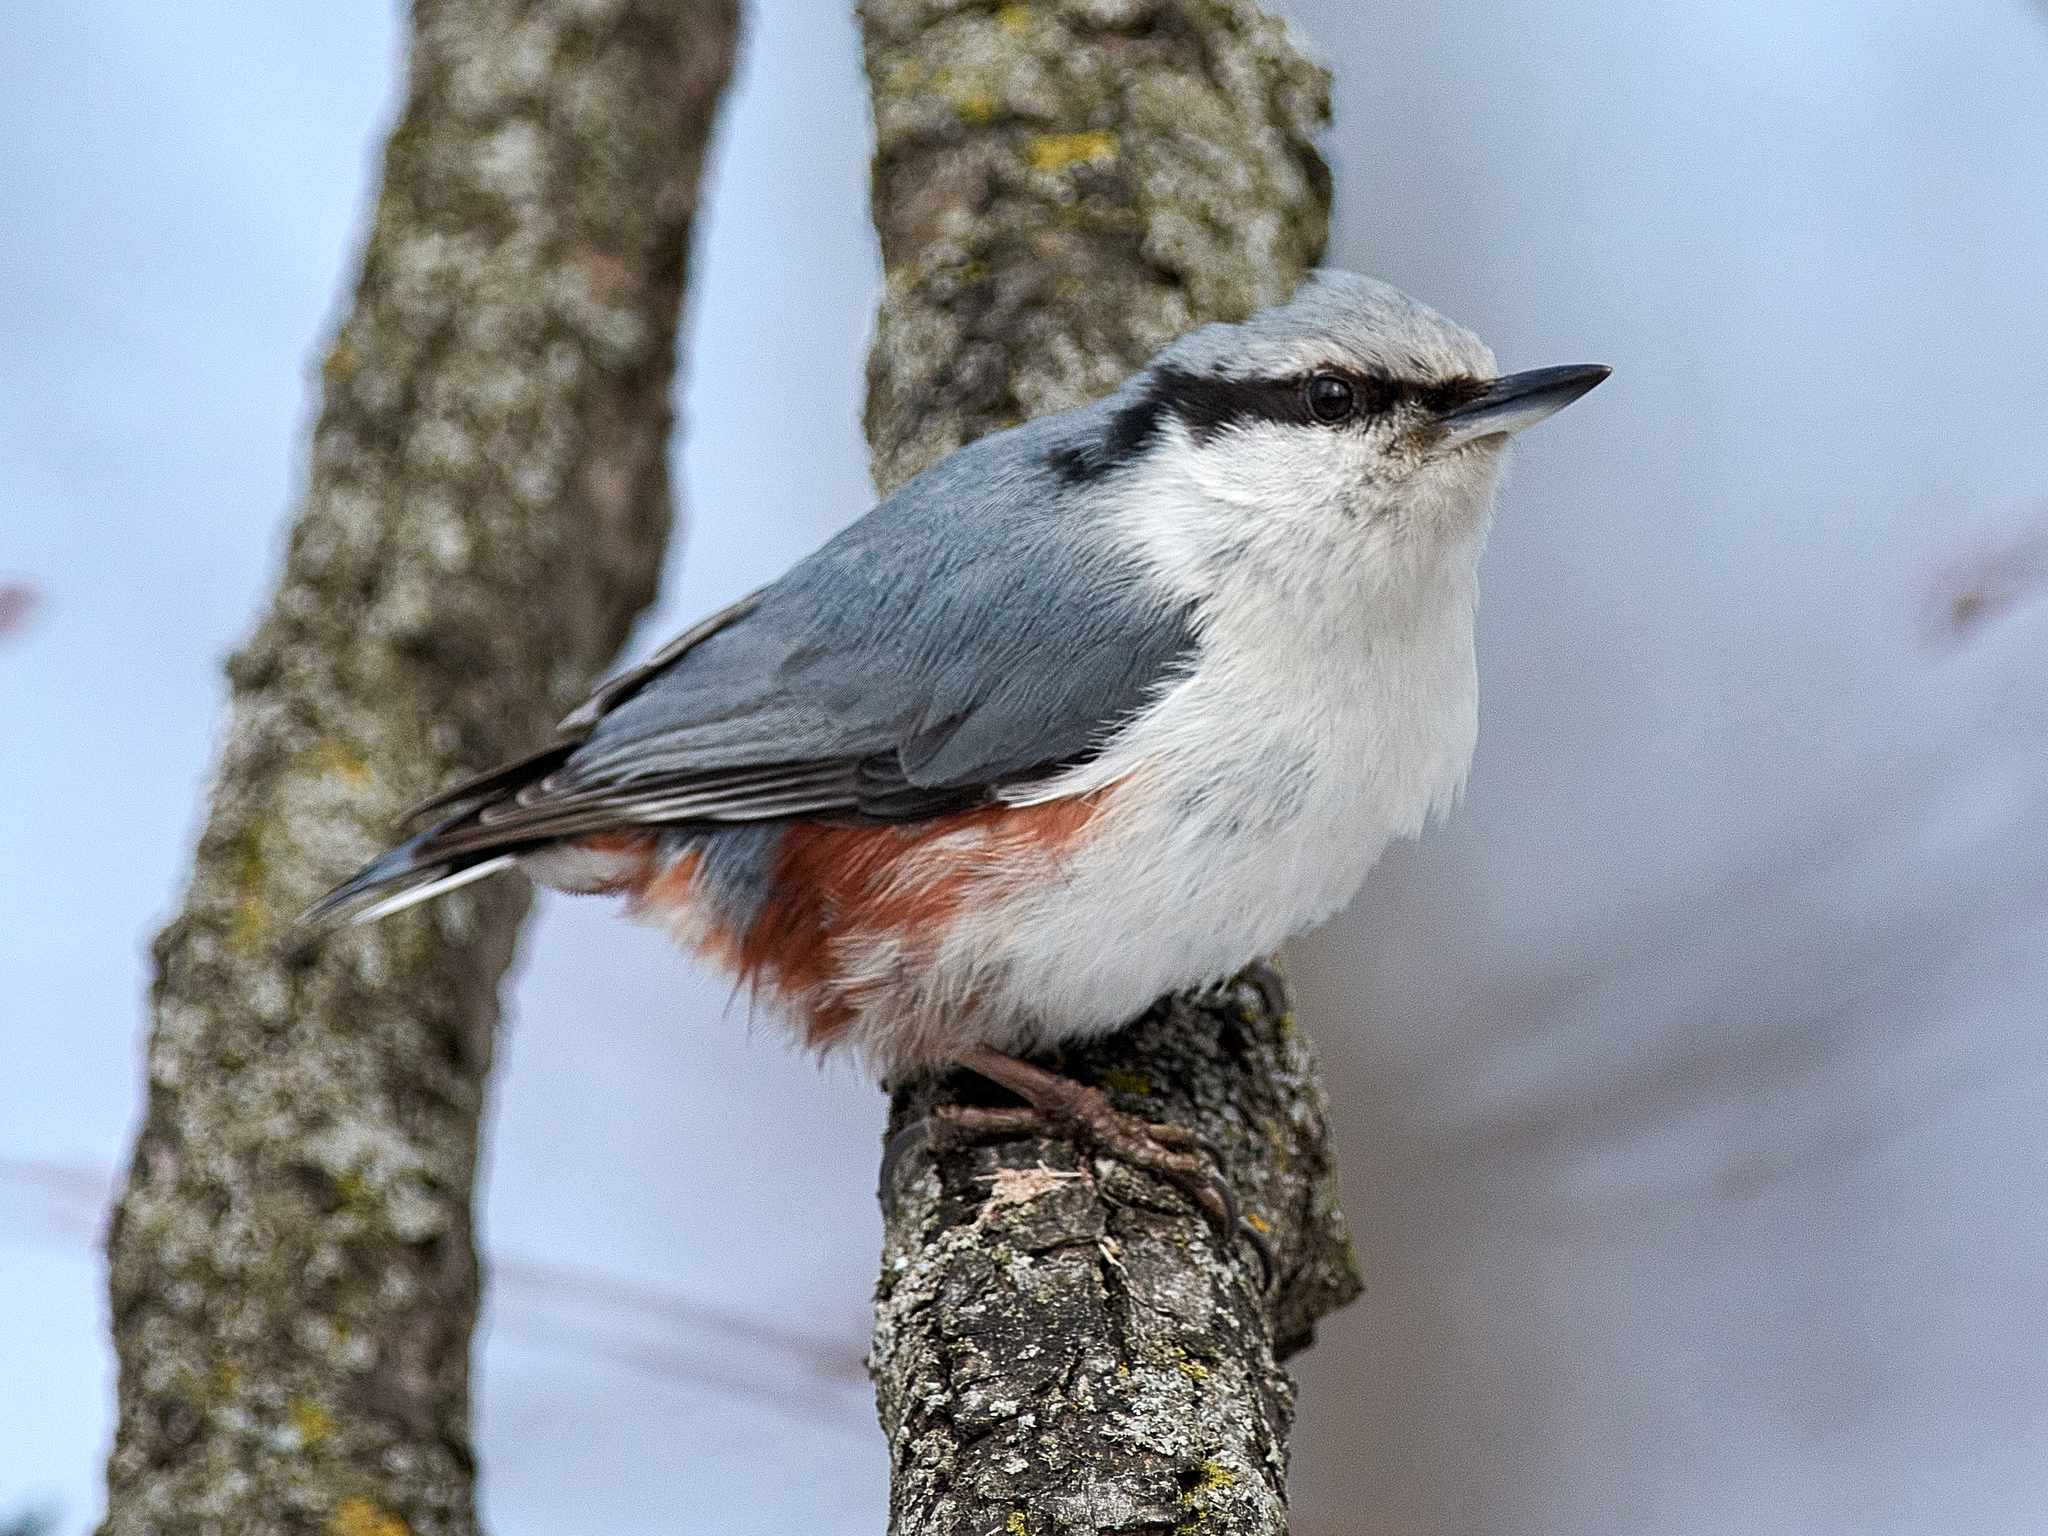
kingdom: Animalia
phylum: Chordata
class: Aves
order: Passeriformes
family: Sittidae
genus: Sitta
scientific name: Sitta europaea
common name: Eurasian nuthatch
